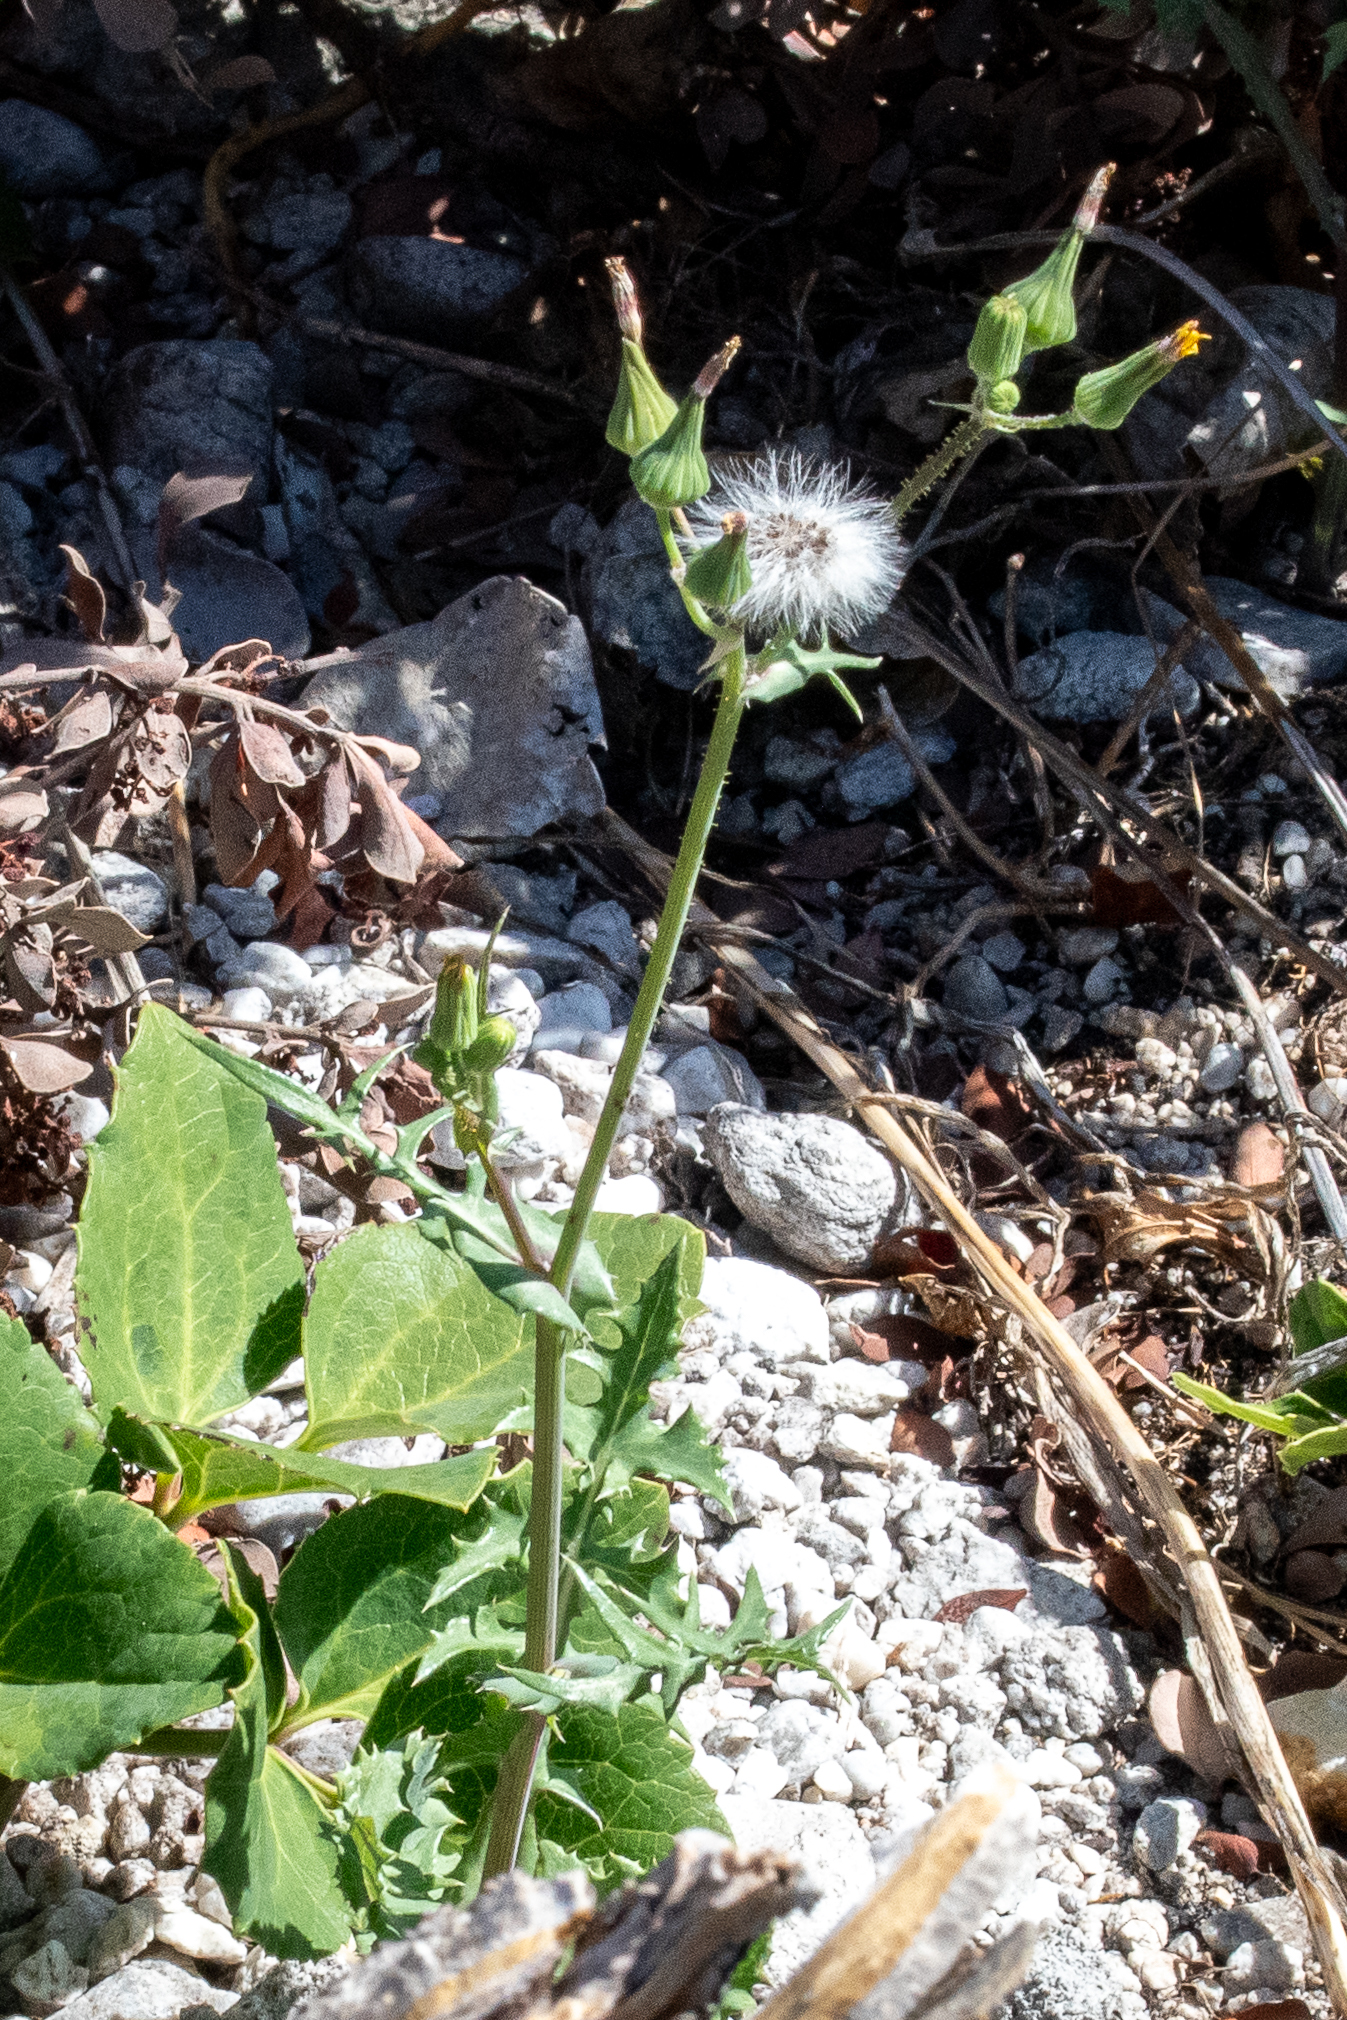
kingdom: Plantae
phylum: Tracheophyta
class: Magnoliopsida
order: Asterales
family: Asteraceae
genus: Sonchus
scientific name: Sonchus oleraceus
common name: Common sowthistle
